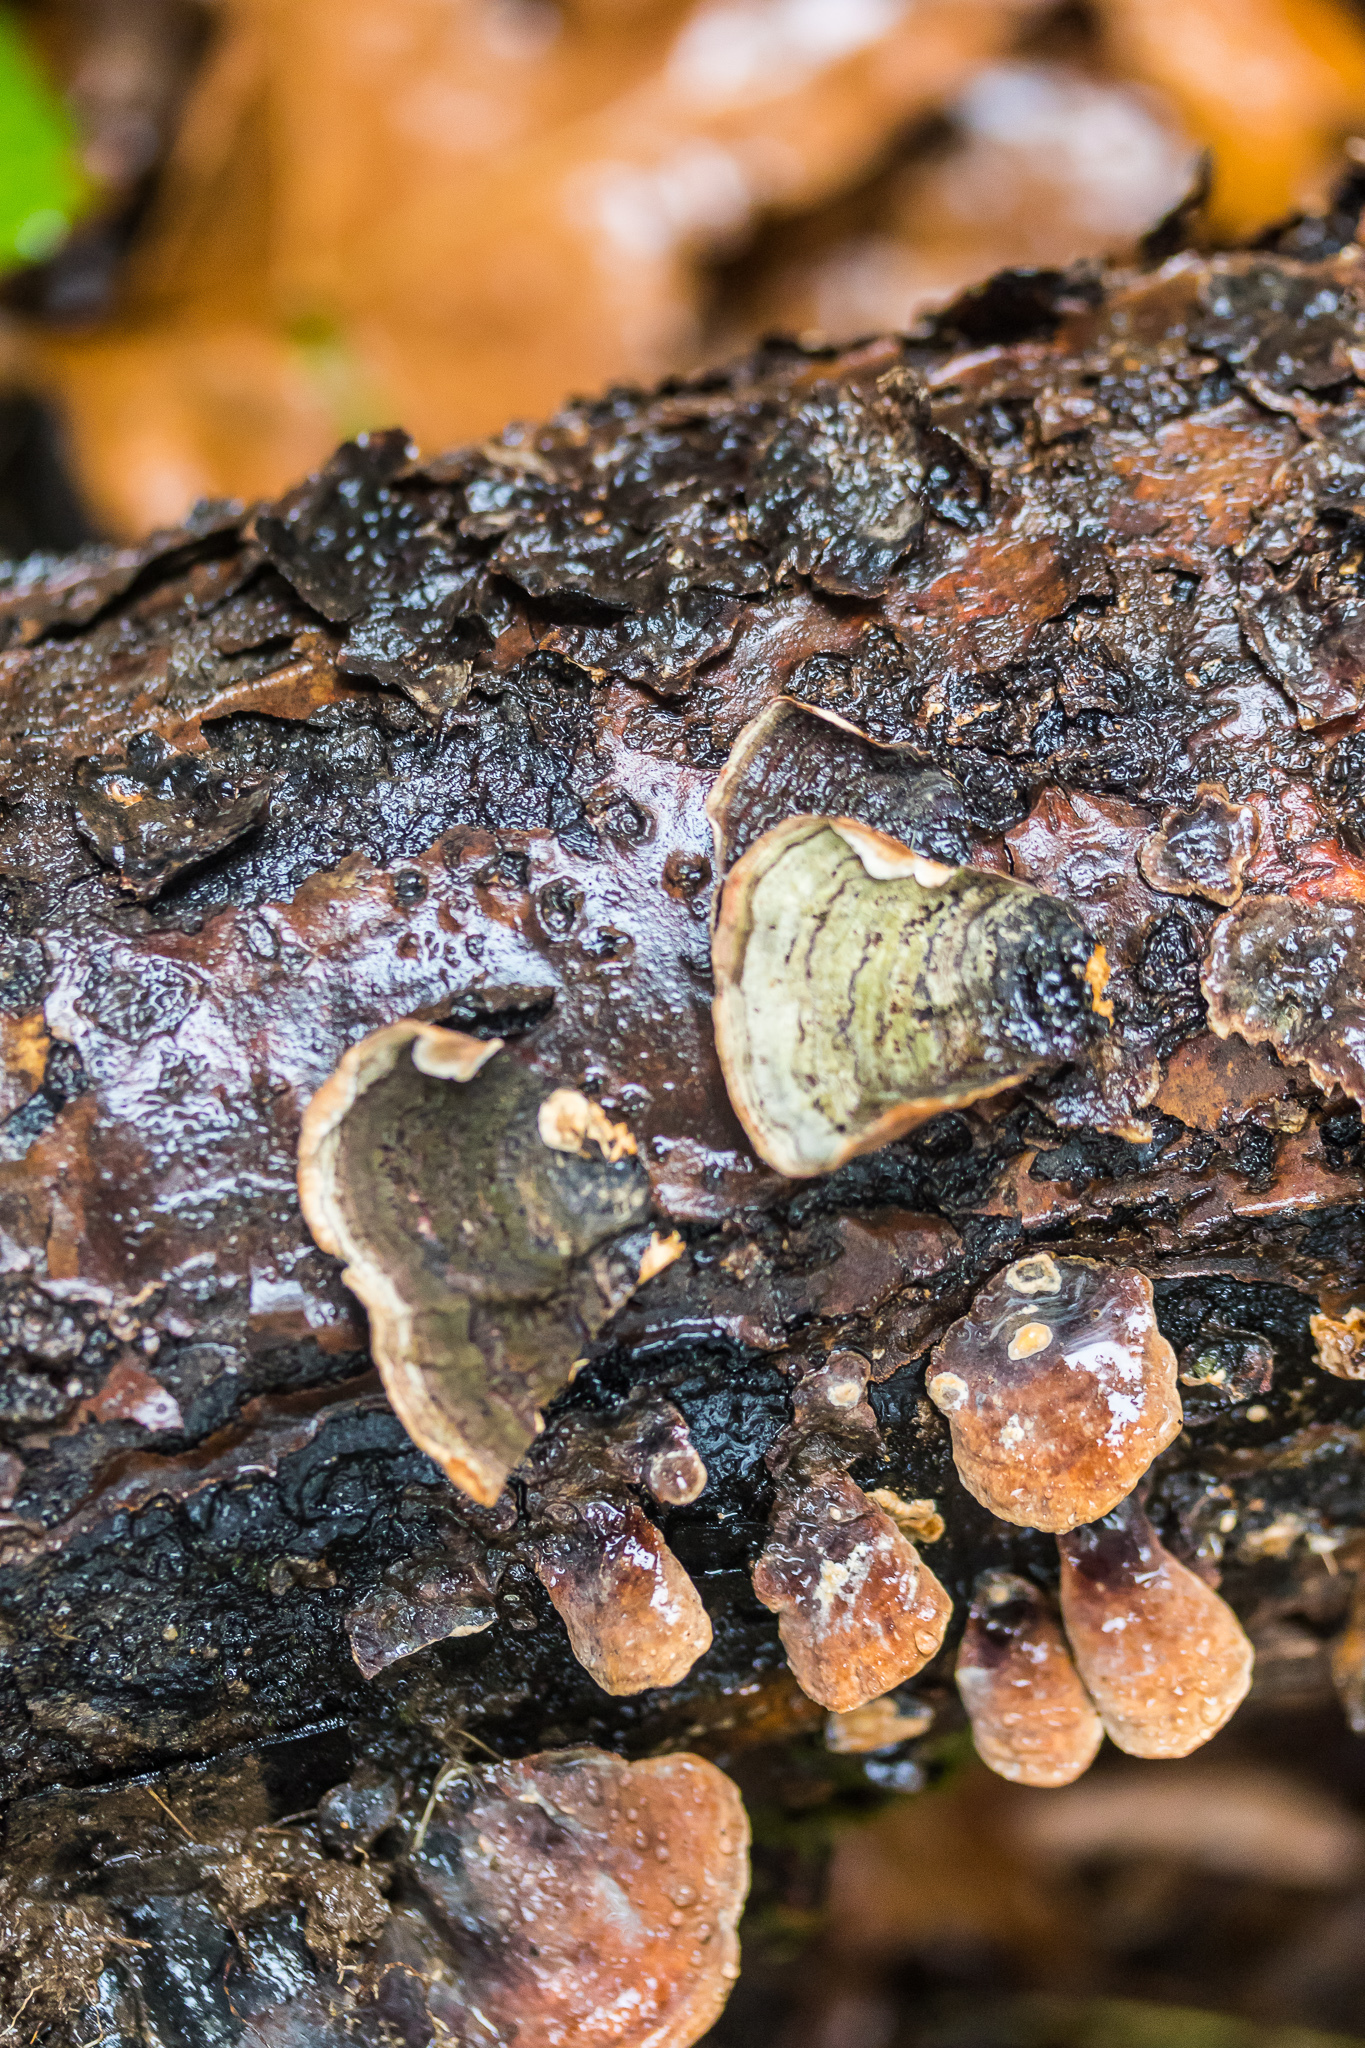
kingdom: Fungi
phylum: Basidiomycota
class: Agaricomycetes
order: Russulales
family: Stereaceae
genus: Stereum
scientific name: Stereum ostrea
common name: False turkeytail
